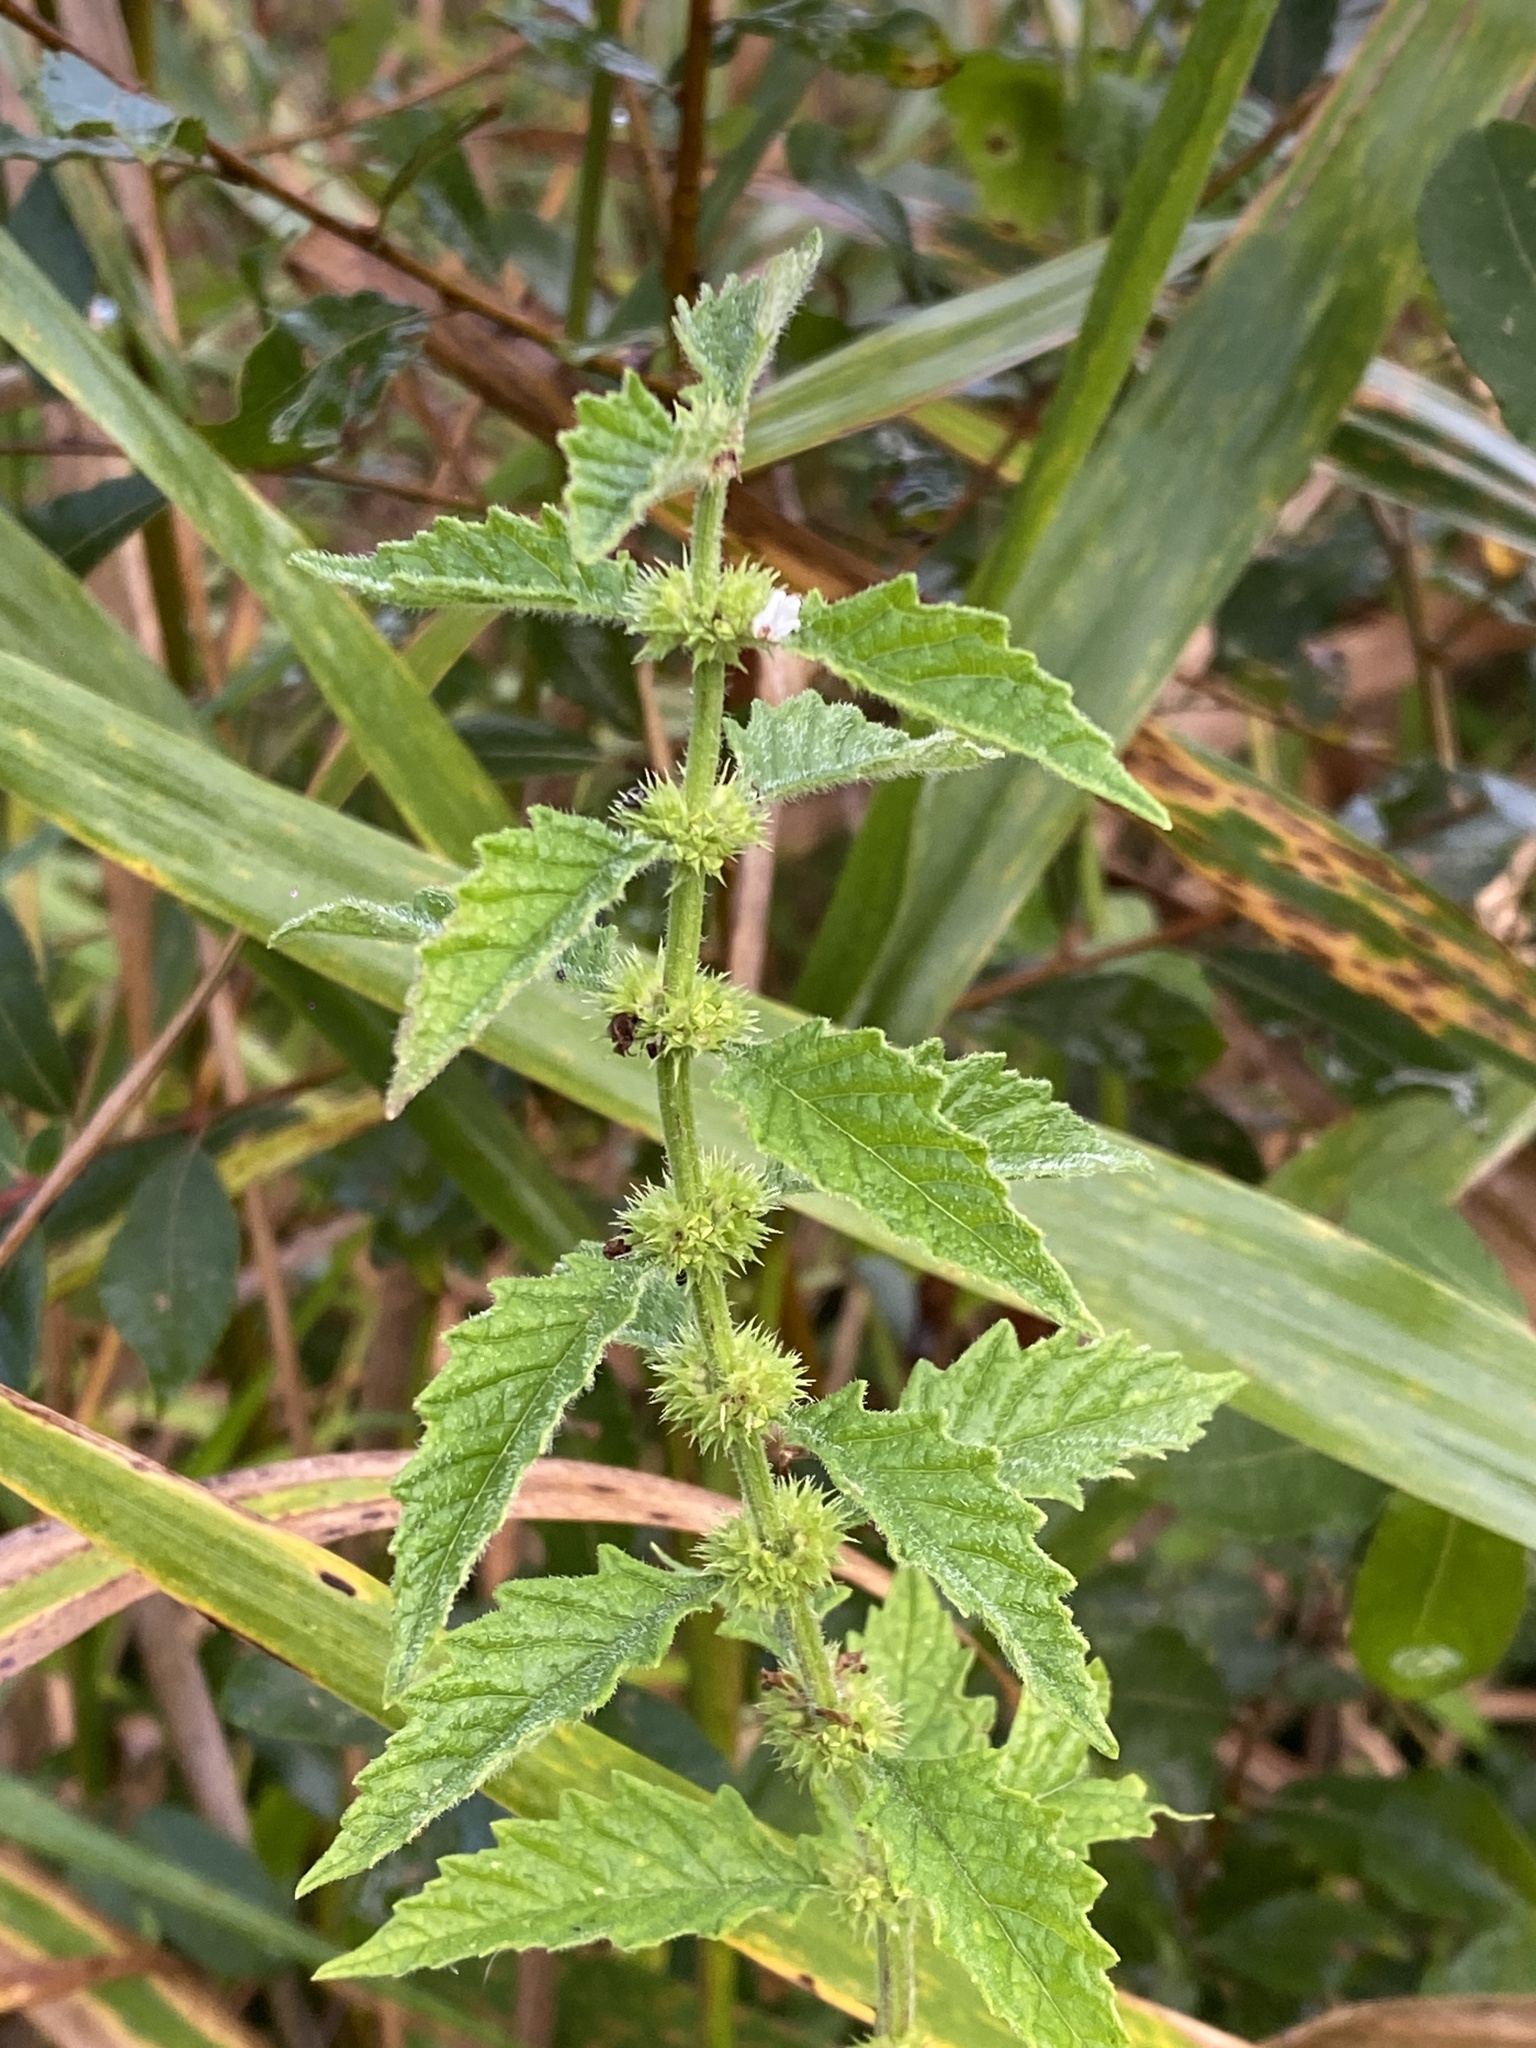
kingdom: Plantae
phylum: Tracheophyta
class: Magnoliopsida
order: Lamiales
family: Lamiaceae
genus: Lycopus
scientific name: Lycopus europaeus
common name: European bugleweed
